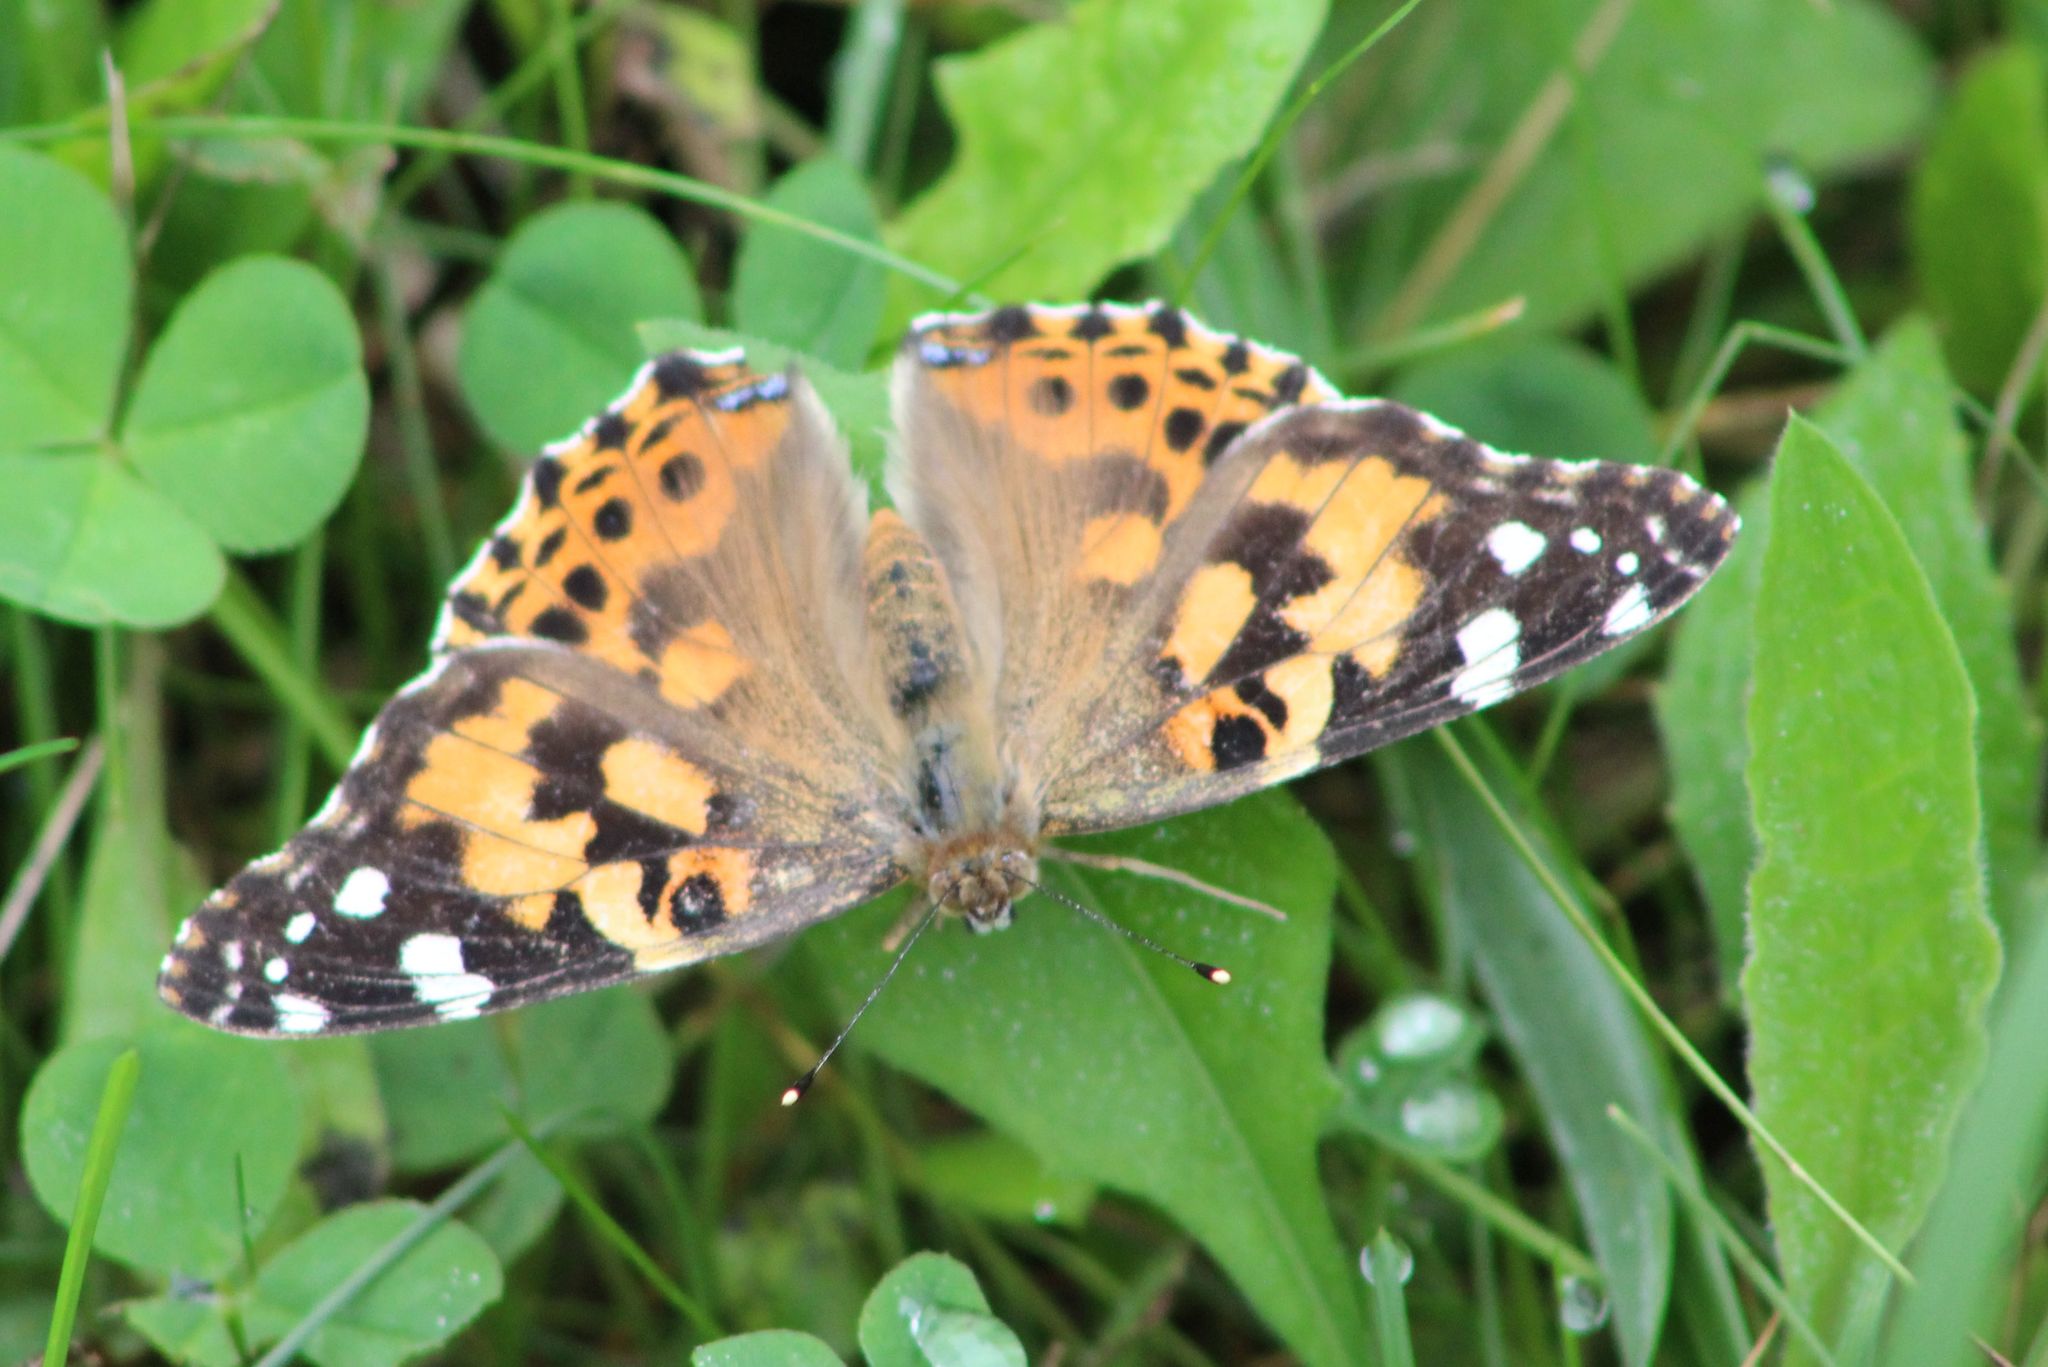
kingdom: Animalia
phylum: Arthropoda
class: Insecta
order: Lepidoptera
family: Nymphalidae
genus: Vanessa
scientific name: Vanessa cardui
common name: Painted lady
